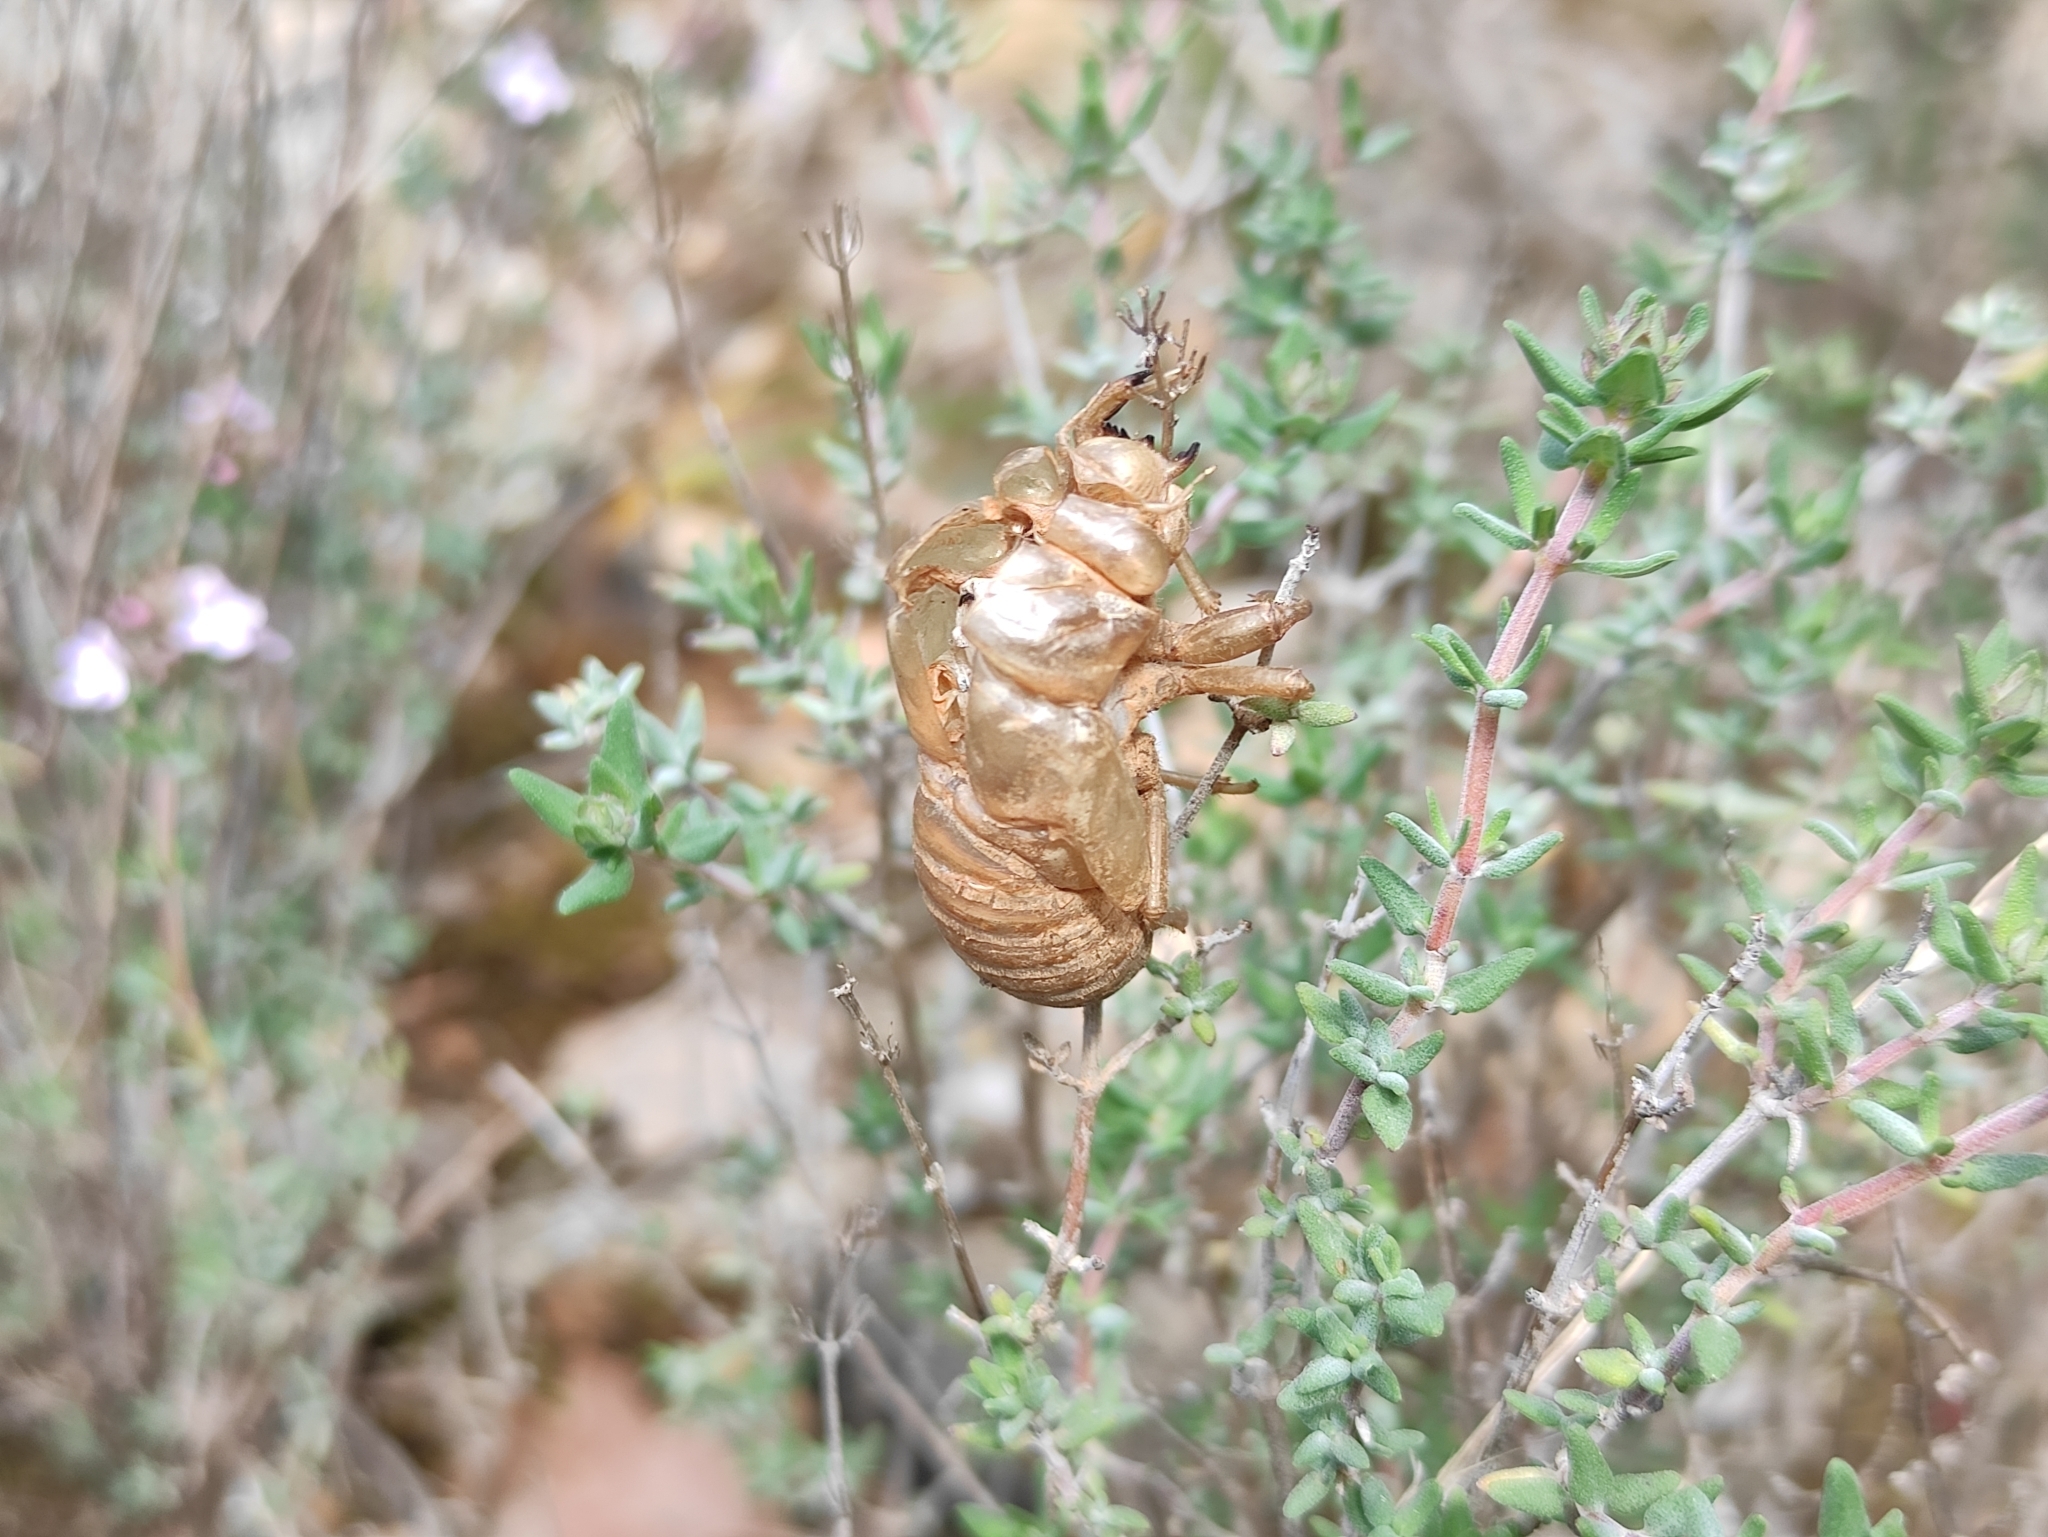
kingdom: Animalia
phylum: Arthropoda
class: Insecta
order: Hemiptera
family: Cicadidae
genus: Lyristes
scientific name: Lyristes plebejus
